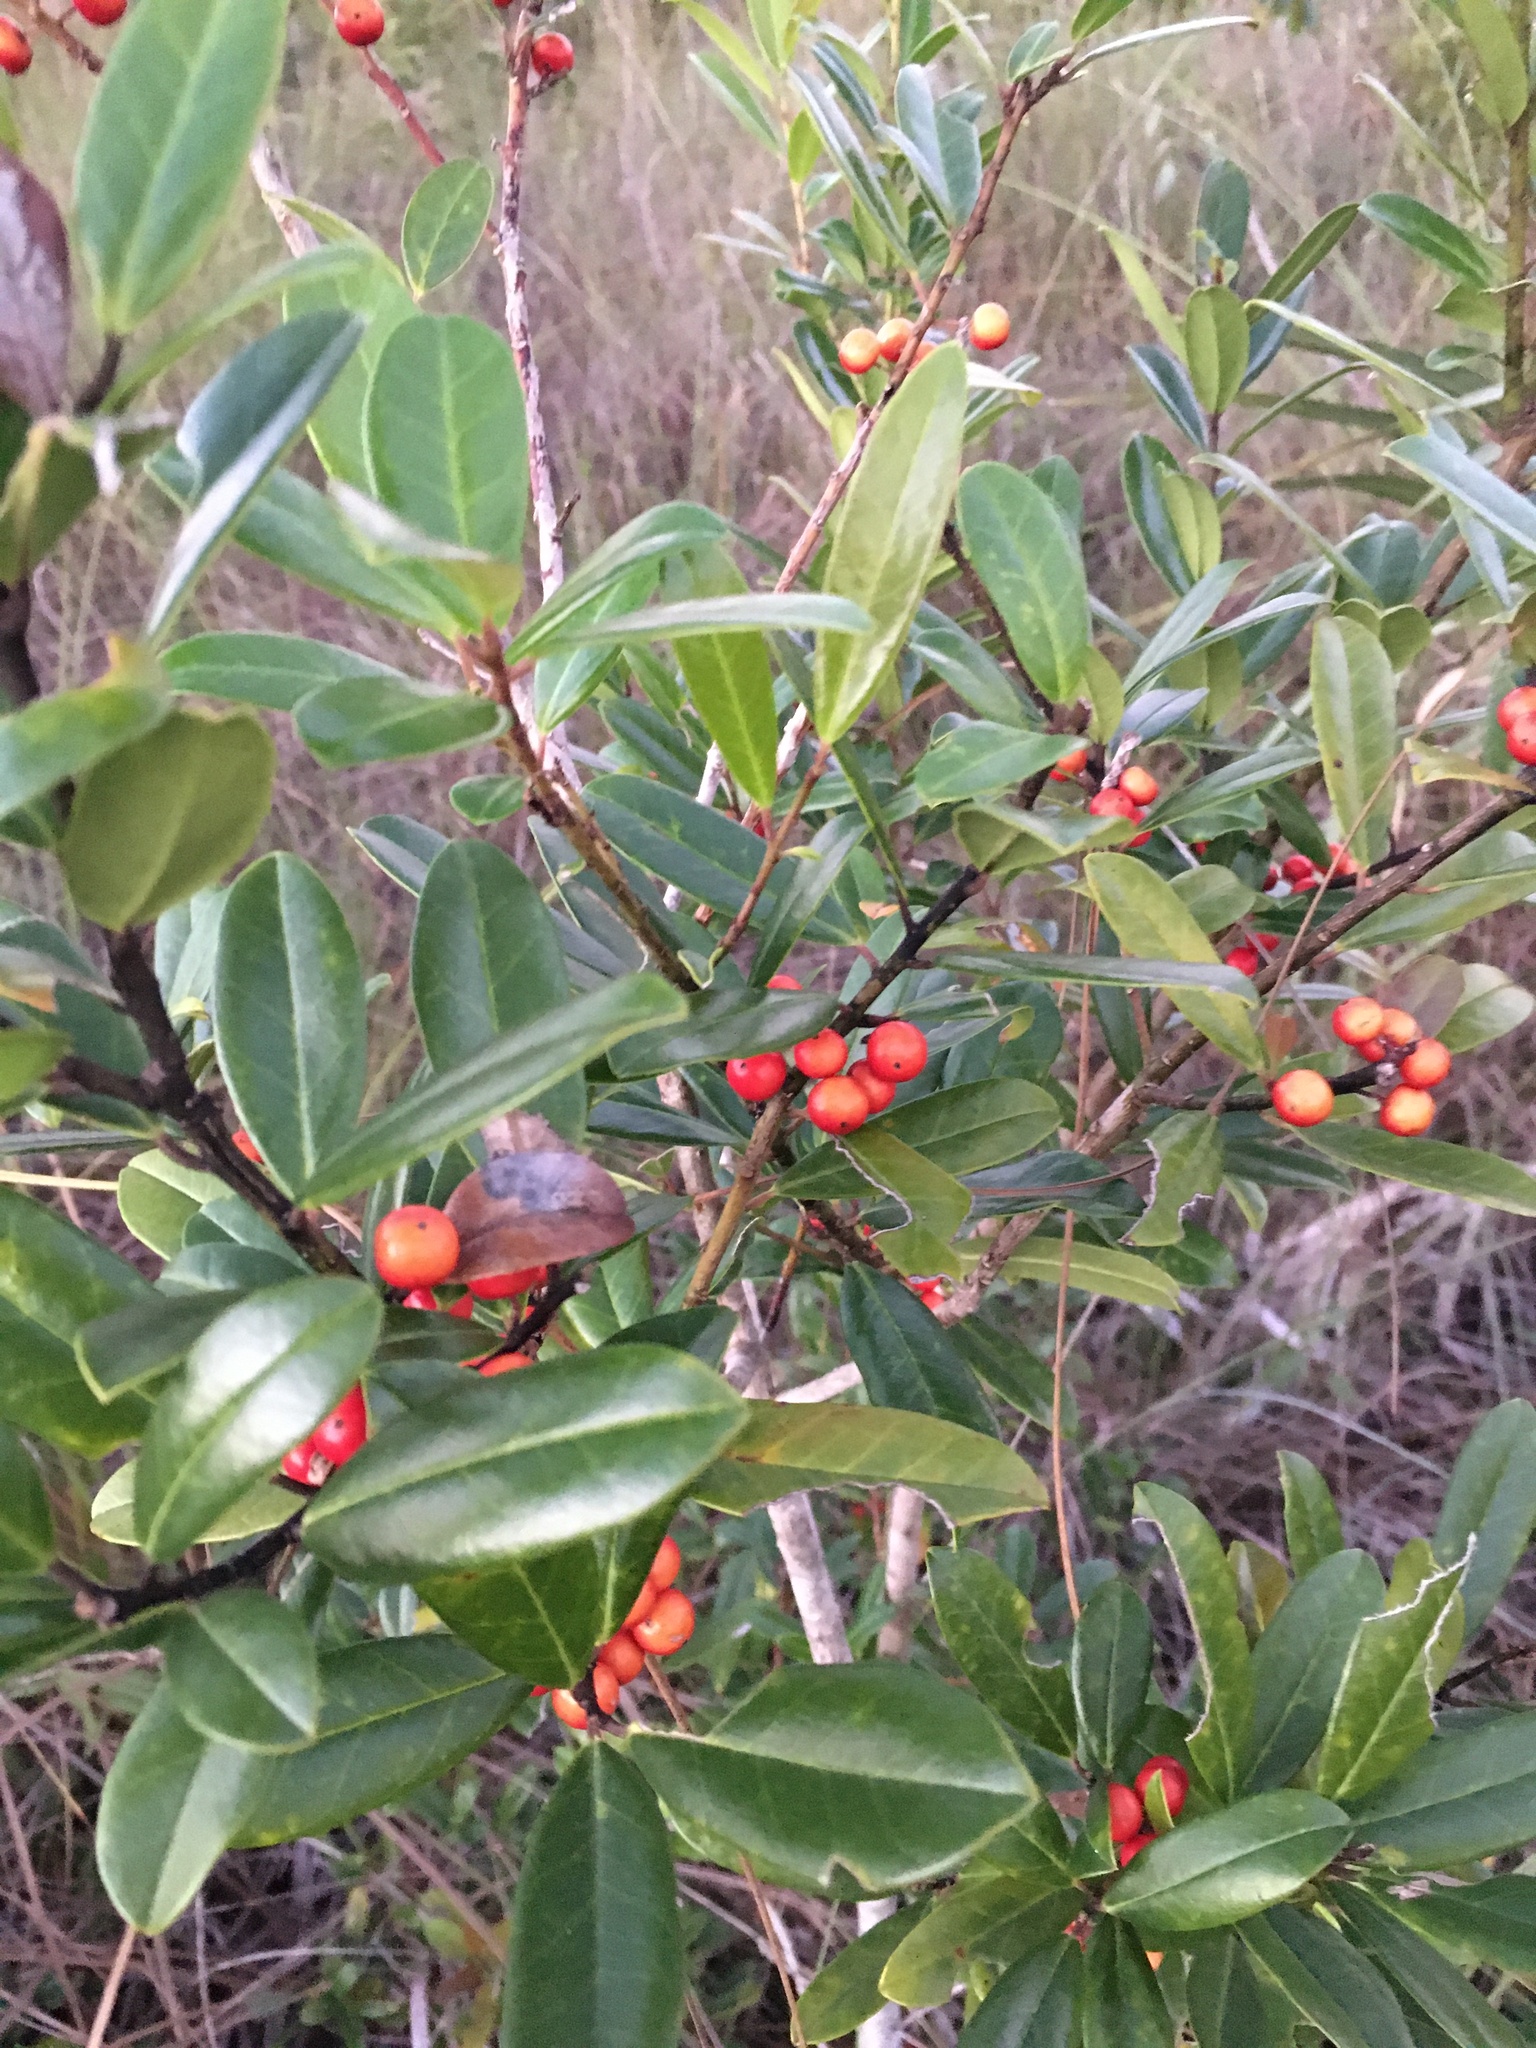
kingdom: Plantae
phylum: Tracheophyta
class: Magnoliopsida
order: Aquifoliales
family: Aquifoliaceae
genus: Ilex
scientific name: Ilex cassine
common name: Dahoon
